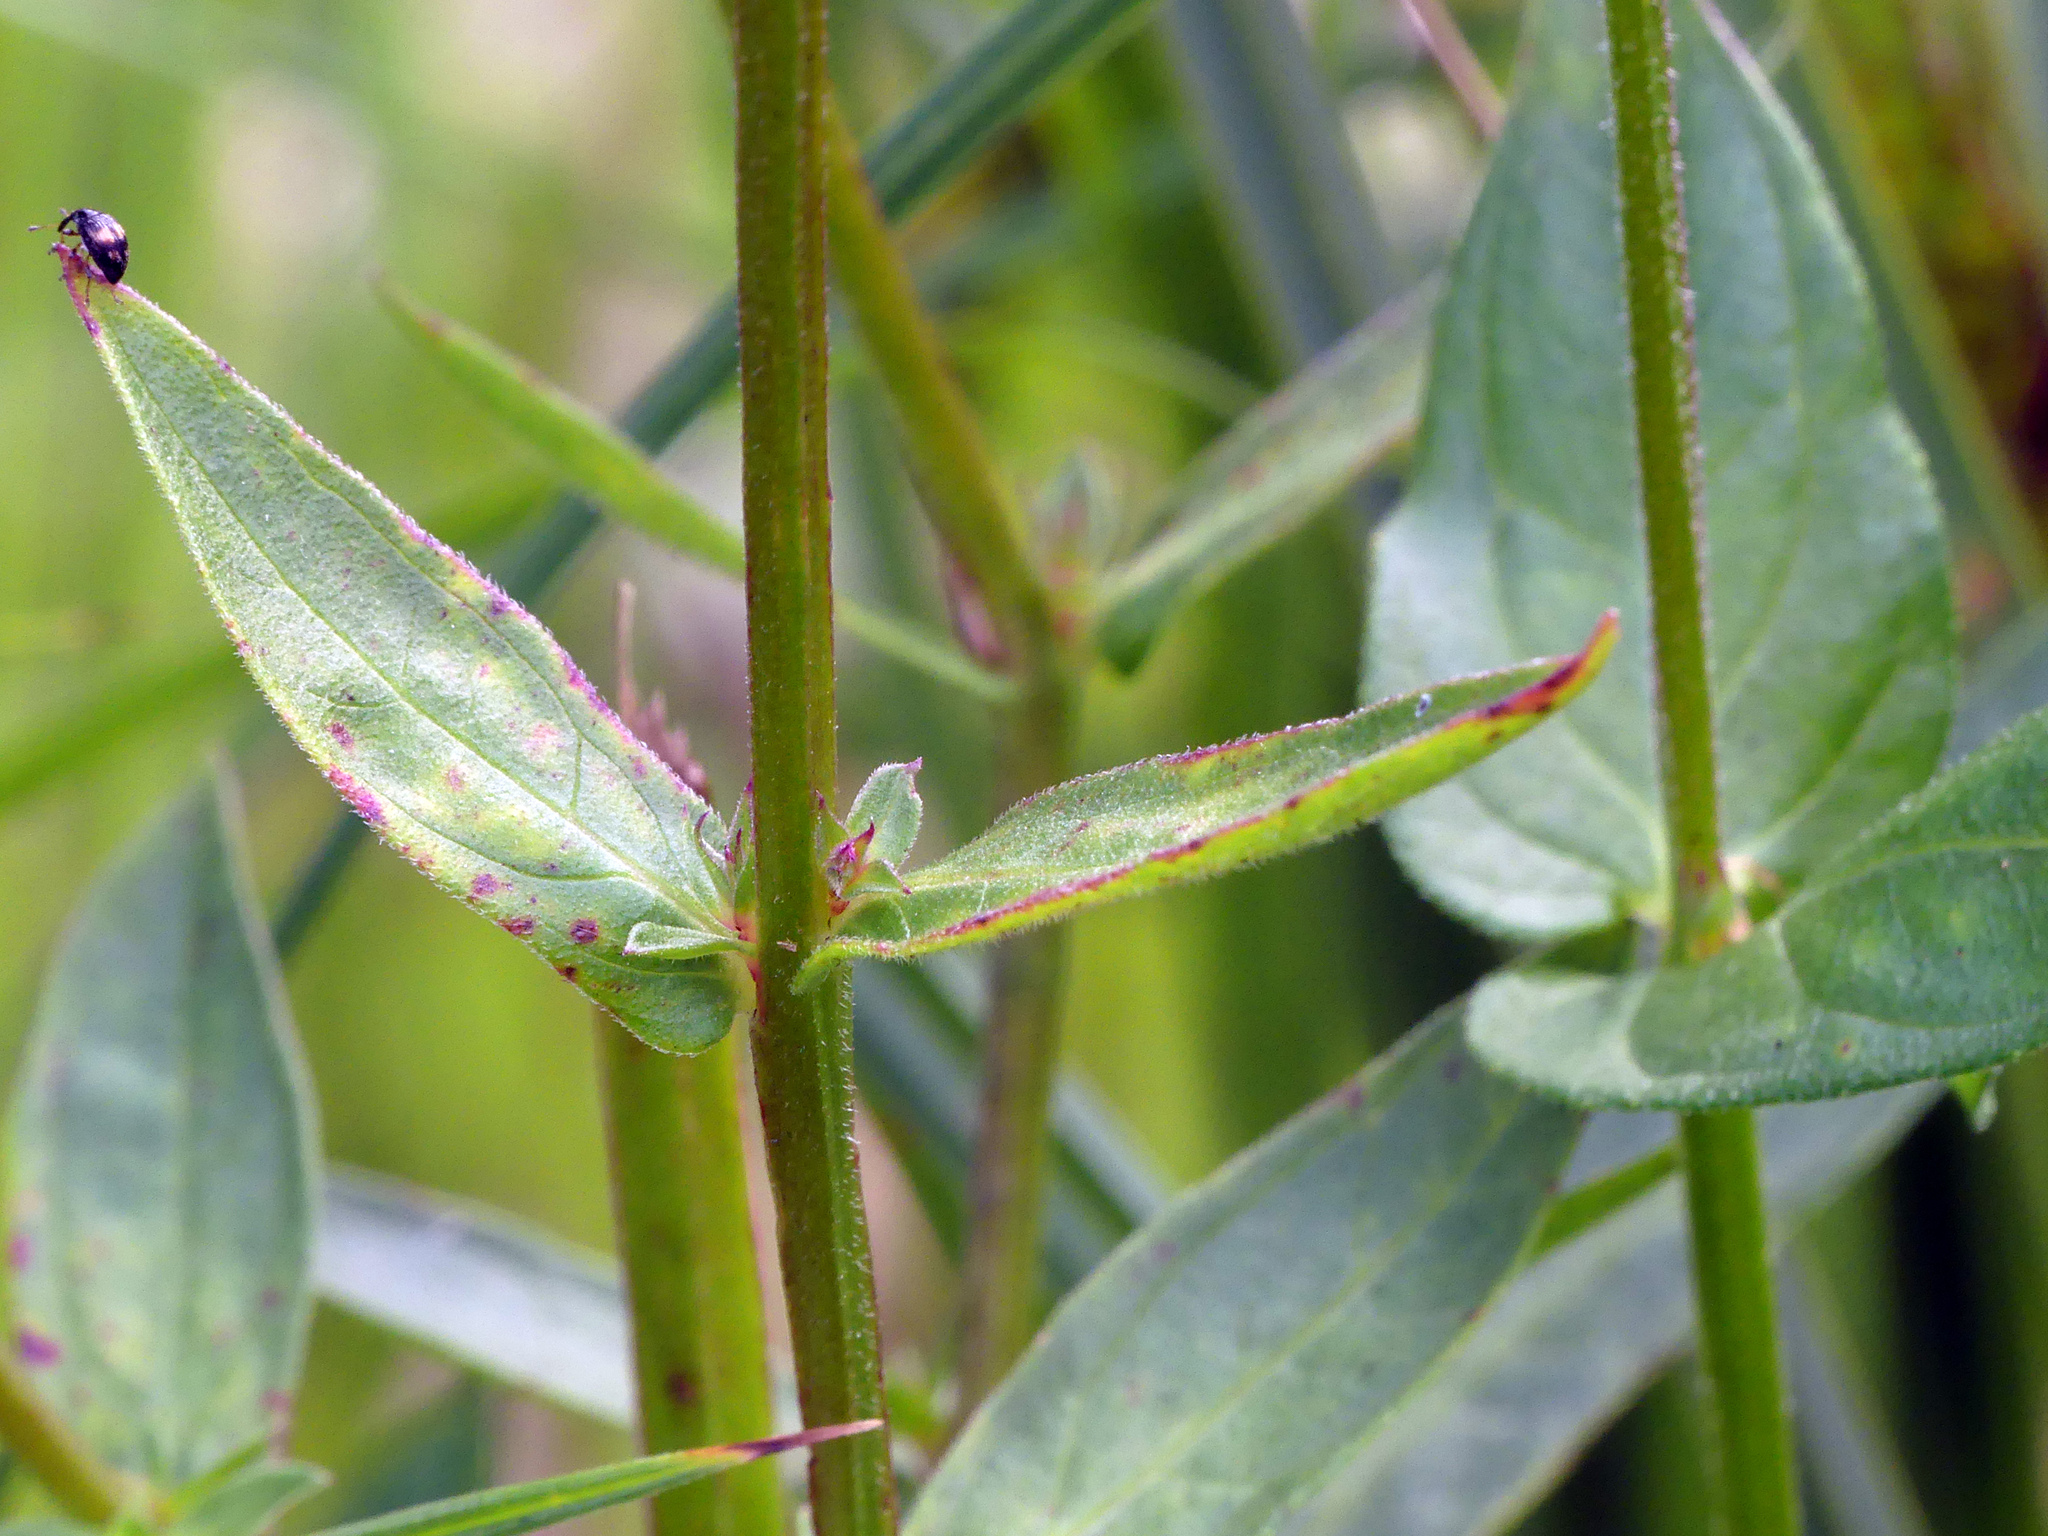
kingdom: Plantae
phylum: Tracheophyta
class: Magnoliopsida
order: Myrtales
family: Lythraceae
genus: Lythrum
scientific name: Lythrum salicaria
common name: Purple loosestrife
